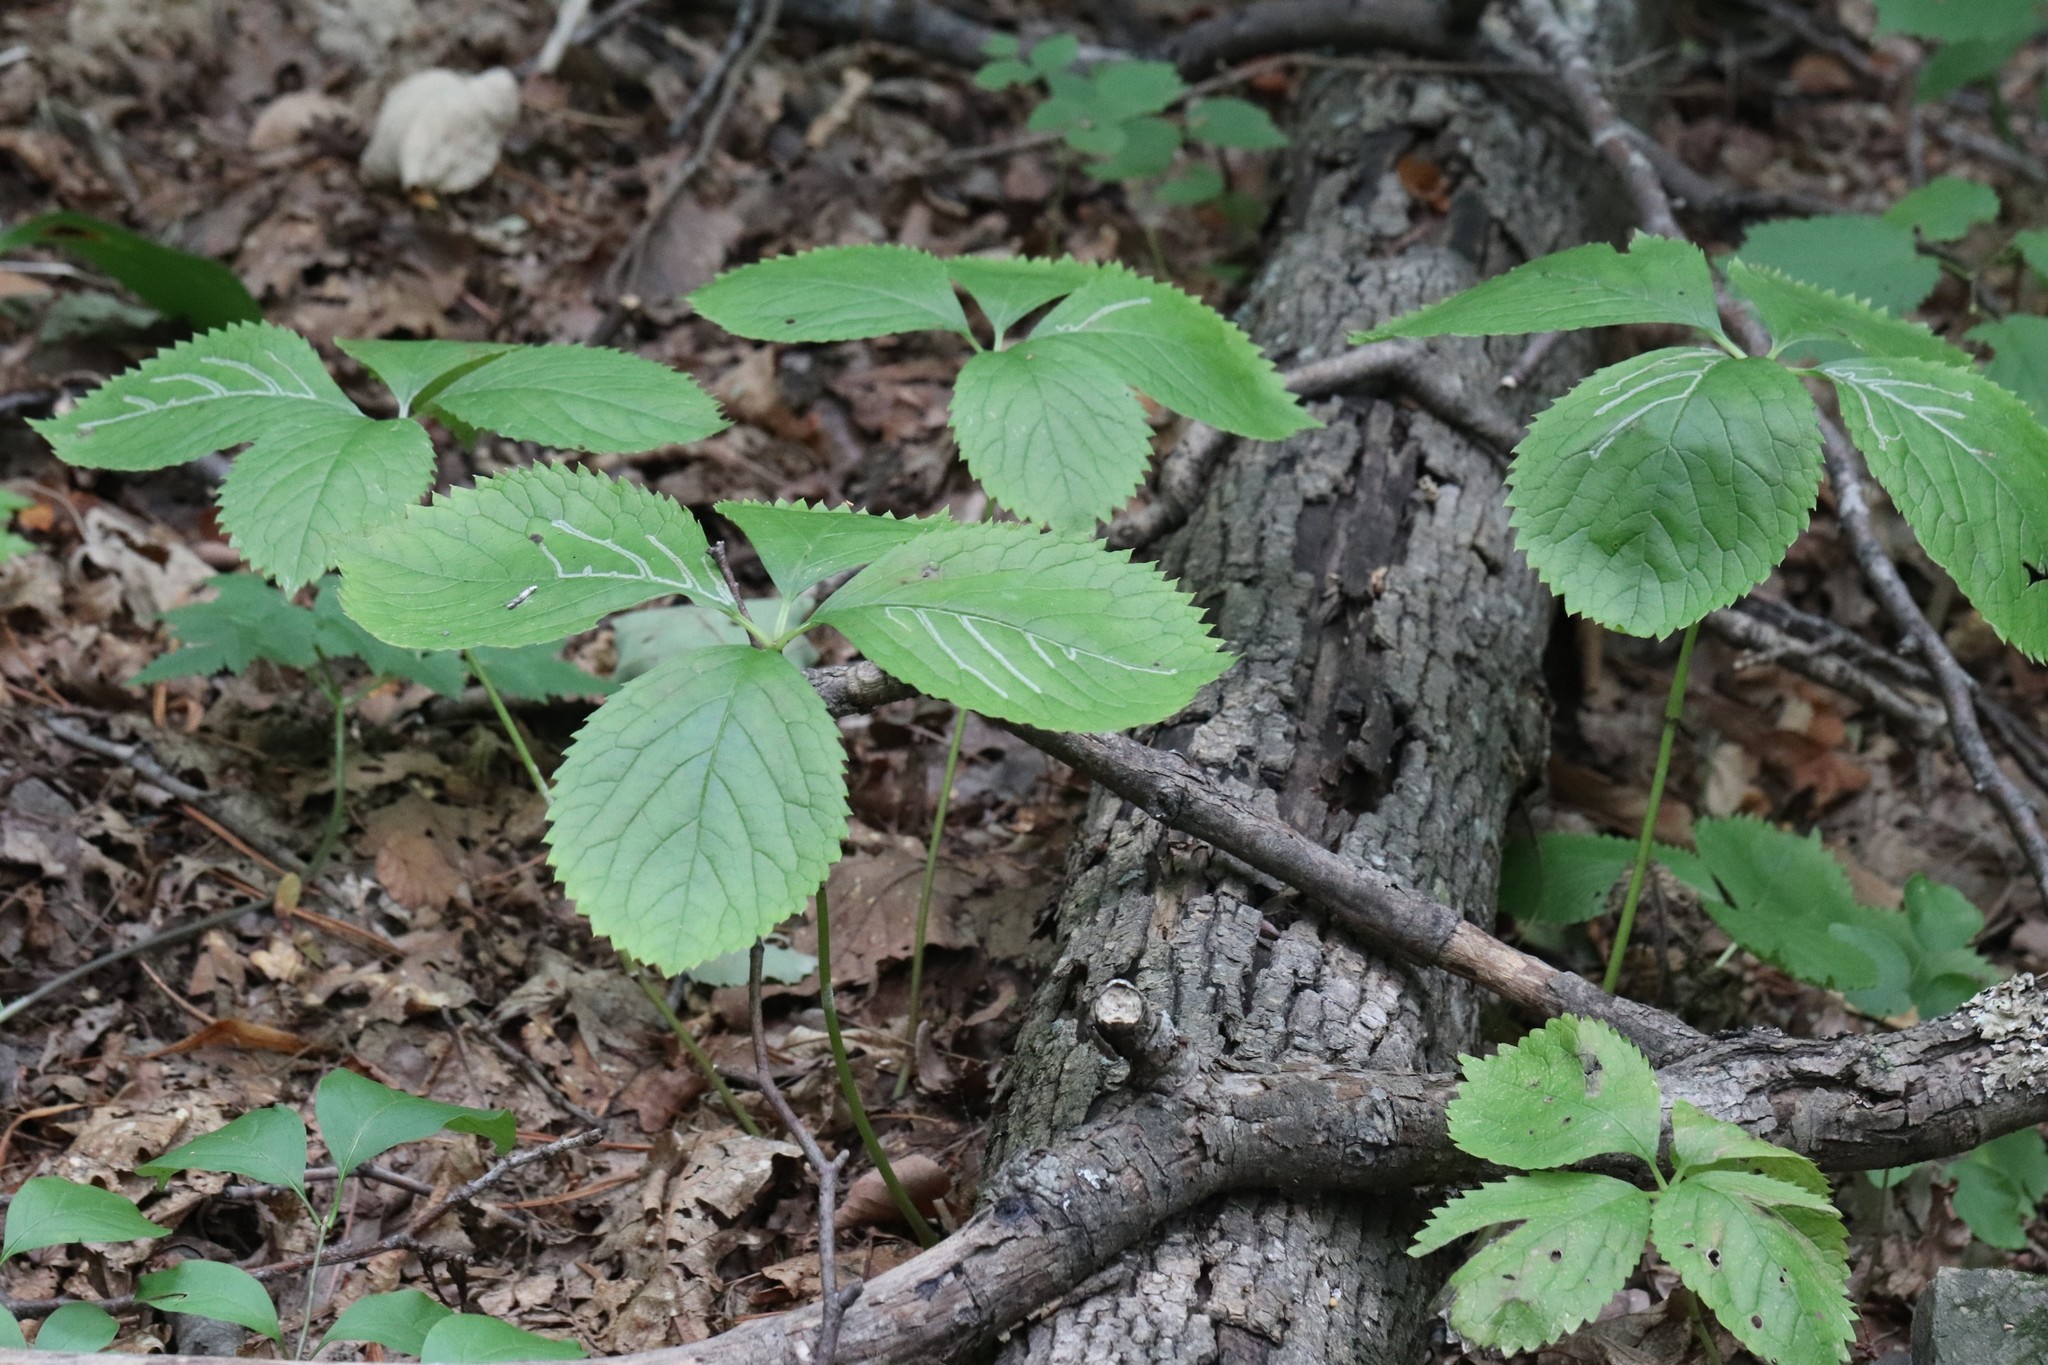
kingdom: Plantae
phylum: Tracheophyta
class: Magnoliopsida
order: Chloranthales
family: Chloranthaceae
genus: Chloranthus
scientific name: Chloranthus quadrifolius
